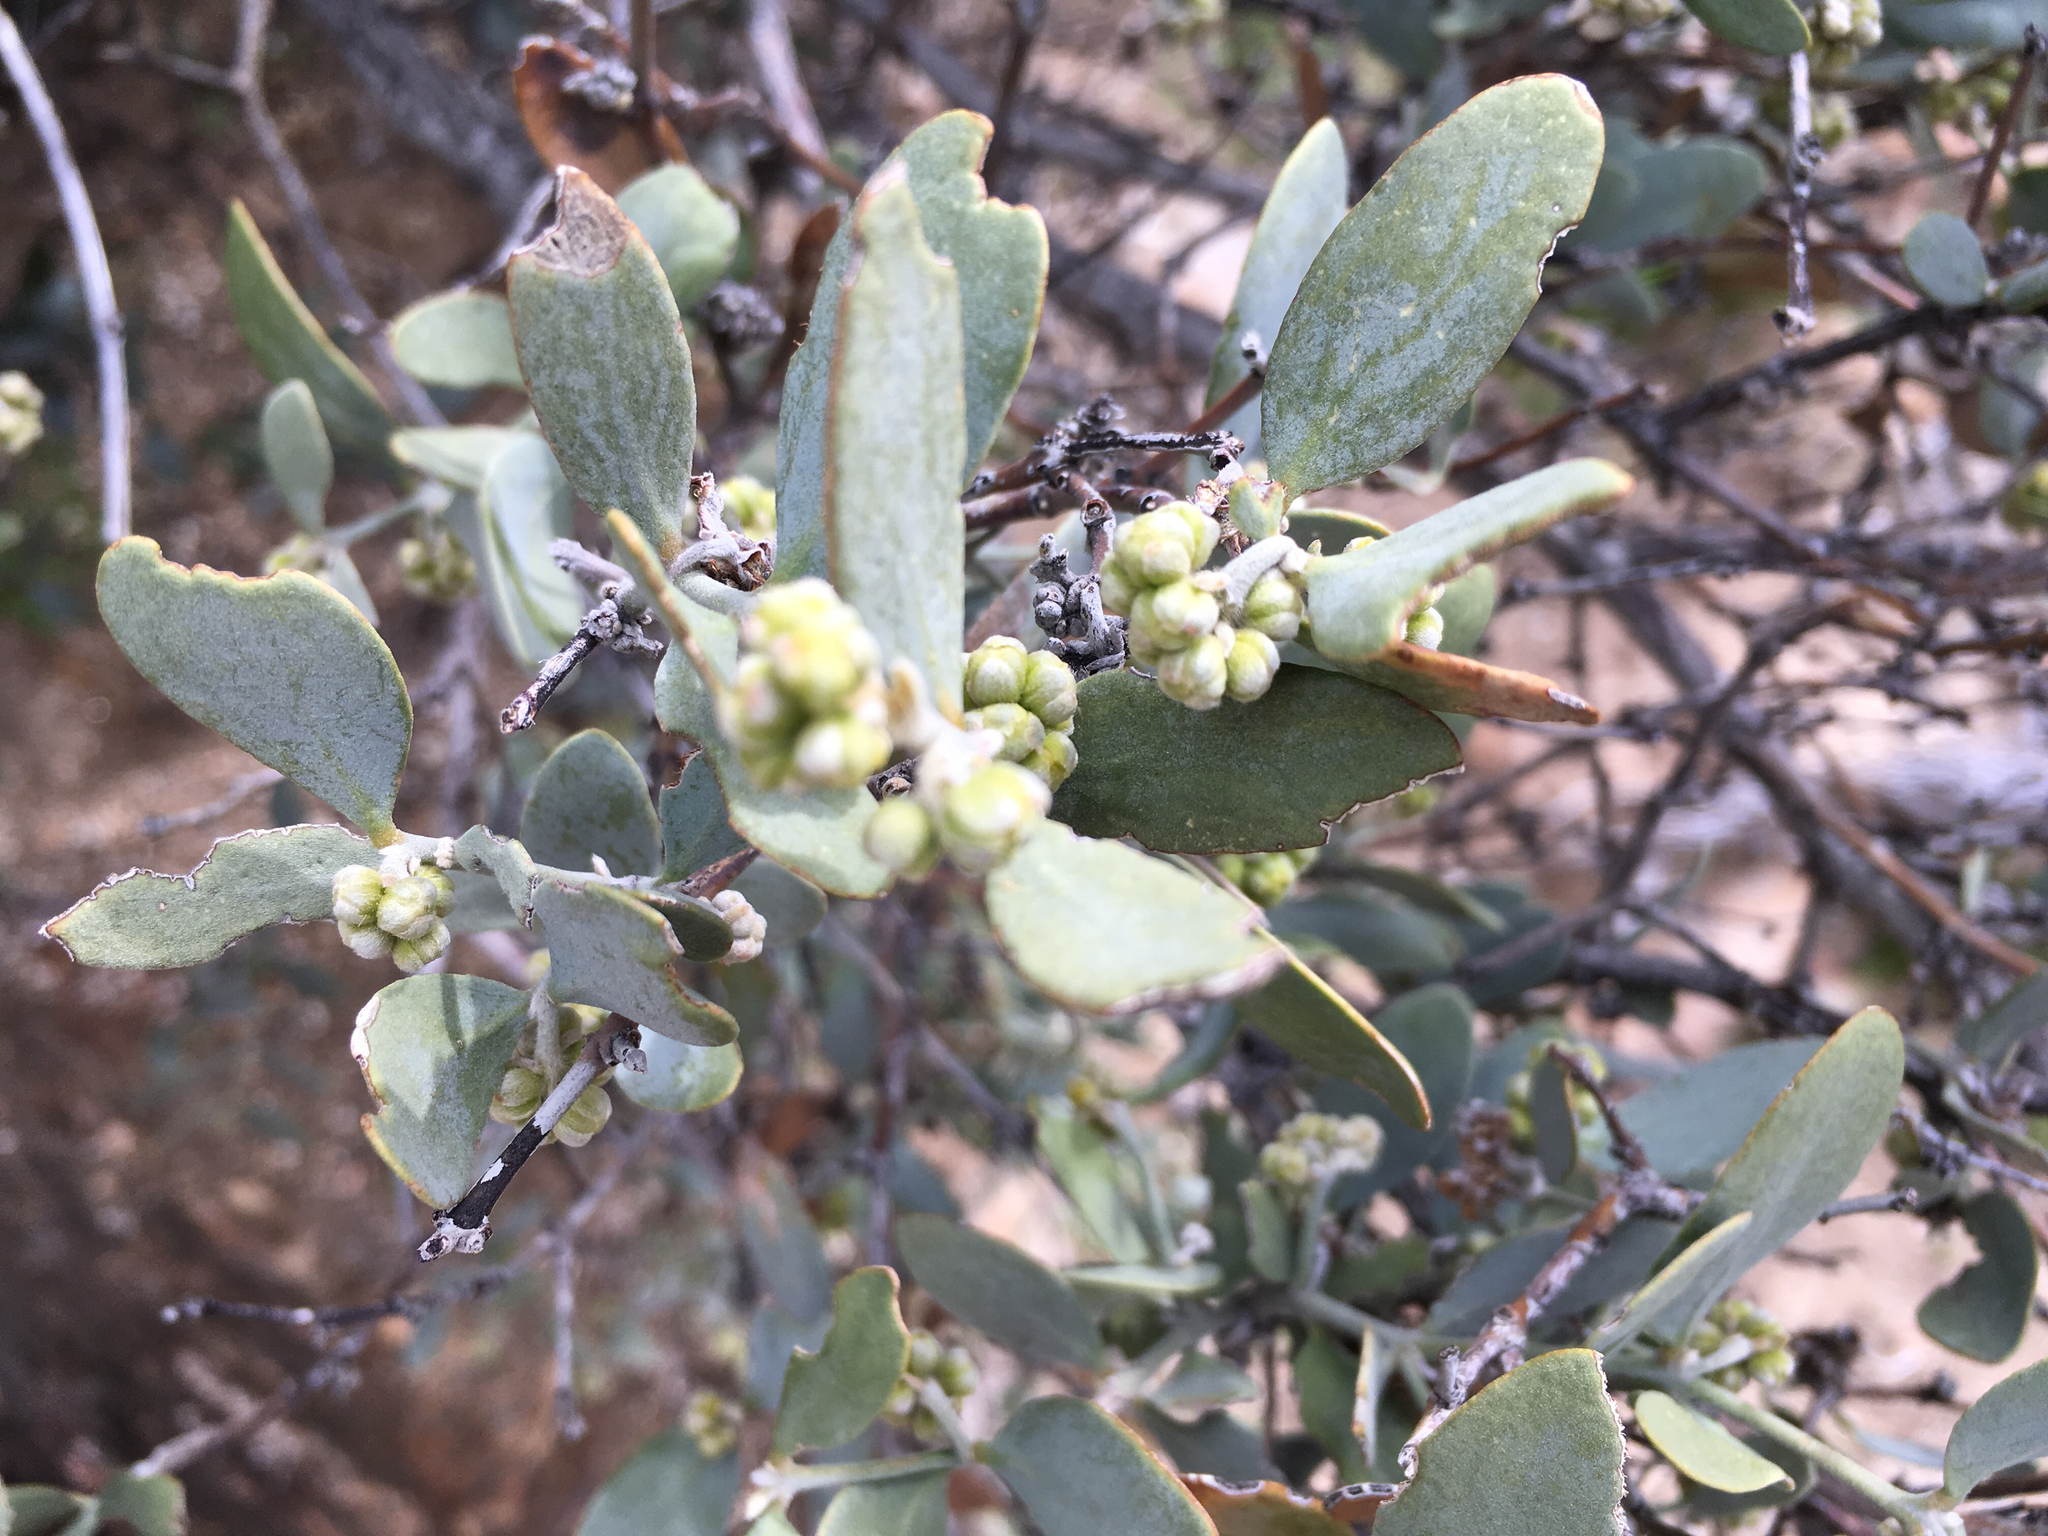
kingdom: Plantae
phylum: Tracheophyta
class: Magnoliopsida
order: Caryophyllales
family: Simmondsiaceae
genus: Simmondsia
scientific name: Simmondsia chinensis
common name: Jojoba
